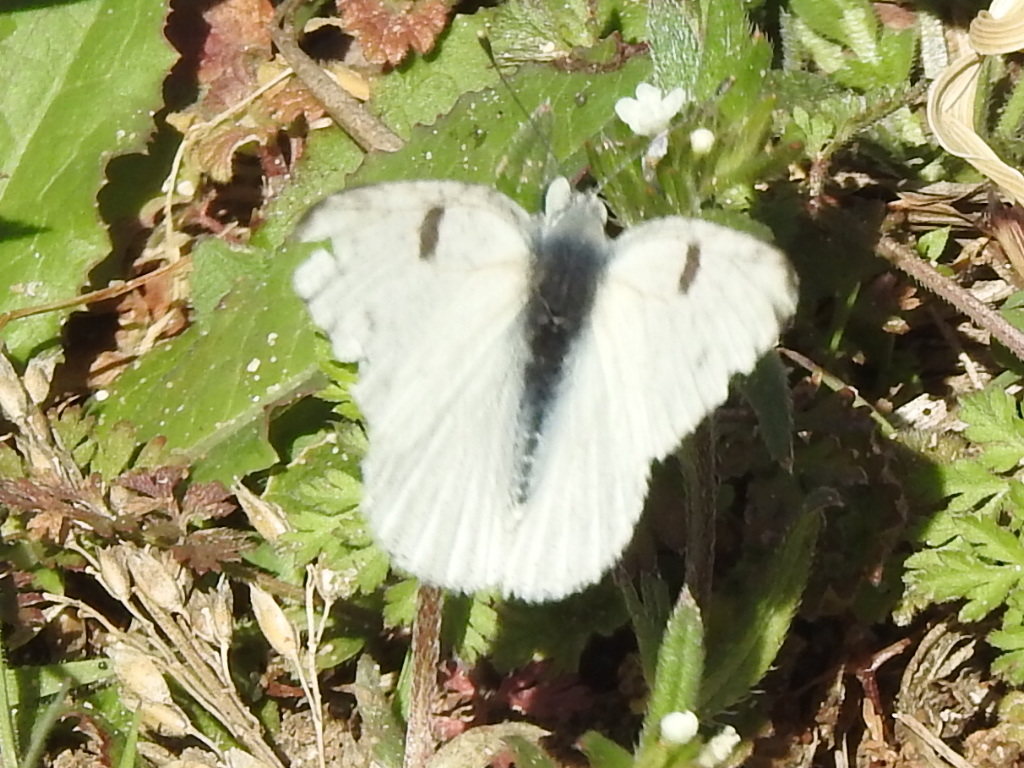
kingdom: Animalia
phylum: Arthropoda
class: Insecta
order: Lepidoptera
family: Pieridae
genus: Pontia
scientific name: Pontia protodice
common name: Checkered white
